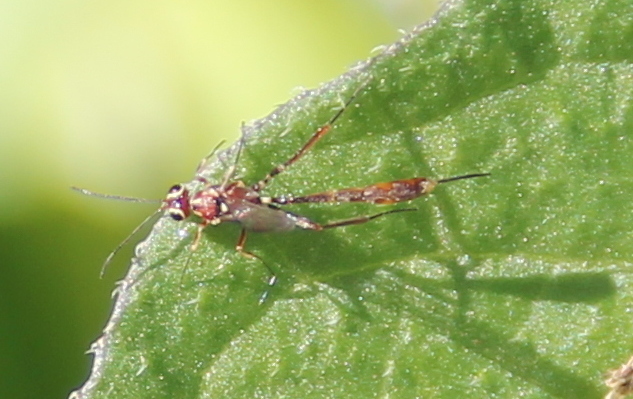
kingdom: Animalia
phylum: Arthropoda
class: Insecta
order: Hymenoptera
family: Ichneumonidae
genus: Anomalon
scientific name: Anomalon
